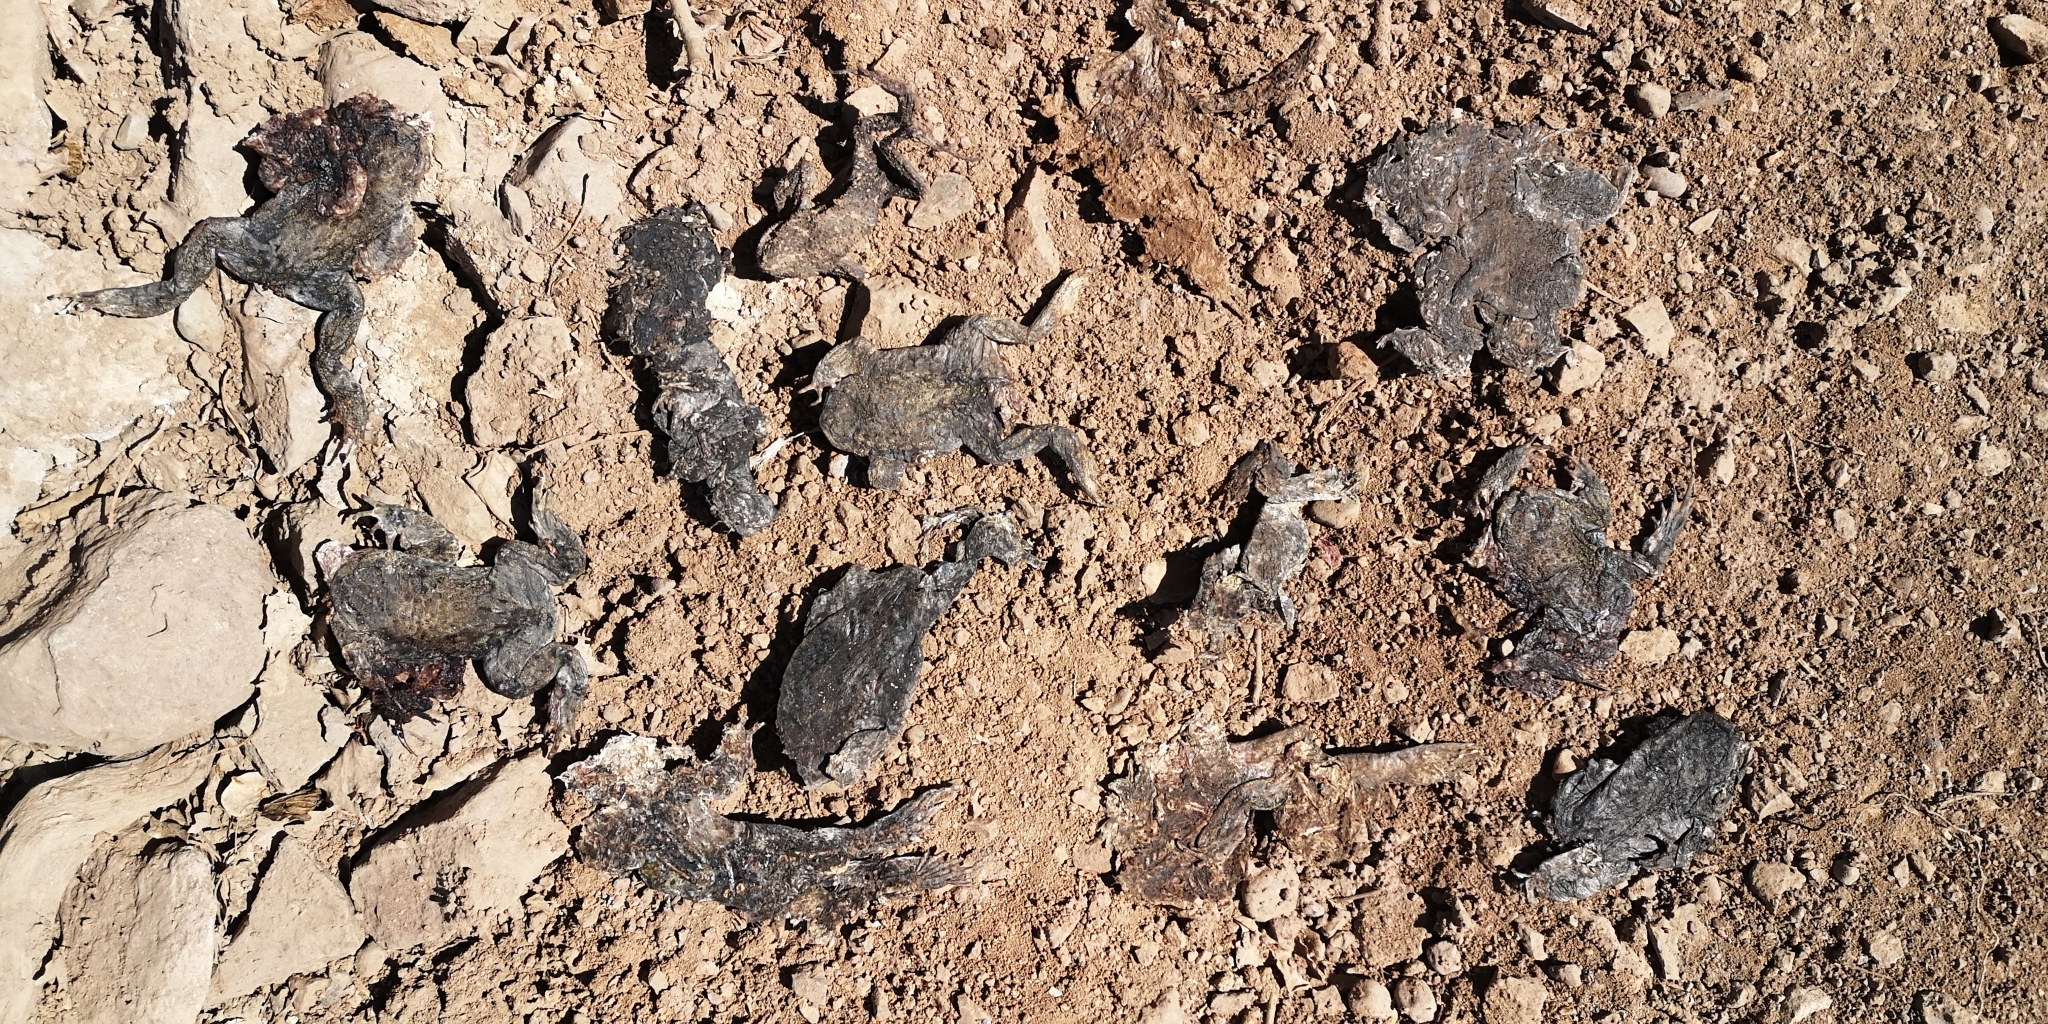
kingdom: Animalia
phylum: Chordata
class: Amphibia
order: Anura
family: Bufonidae
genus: Rhinella
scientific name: Rhinella spinulosa
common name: Warty toad
